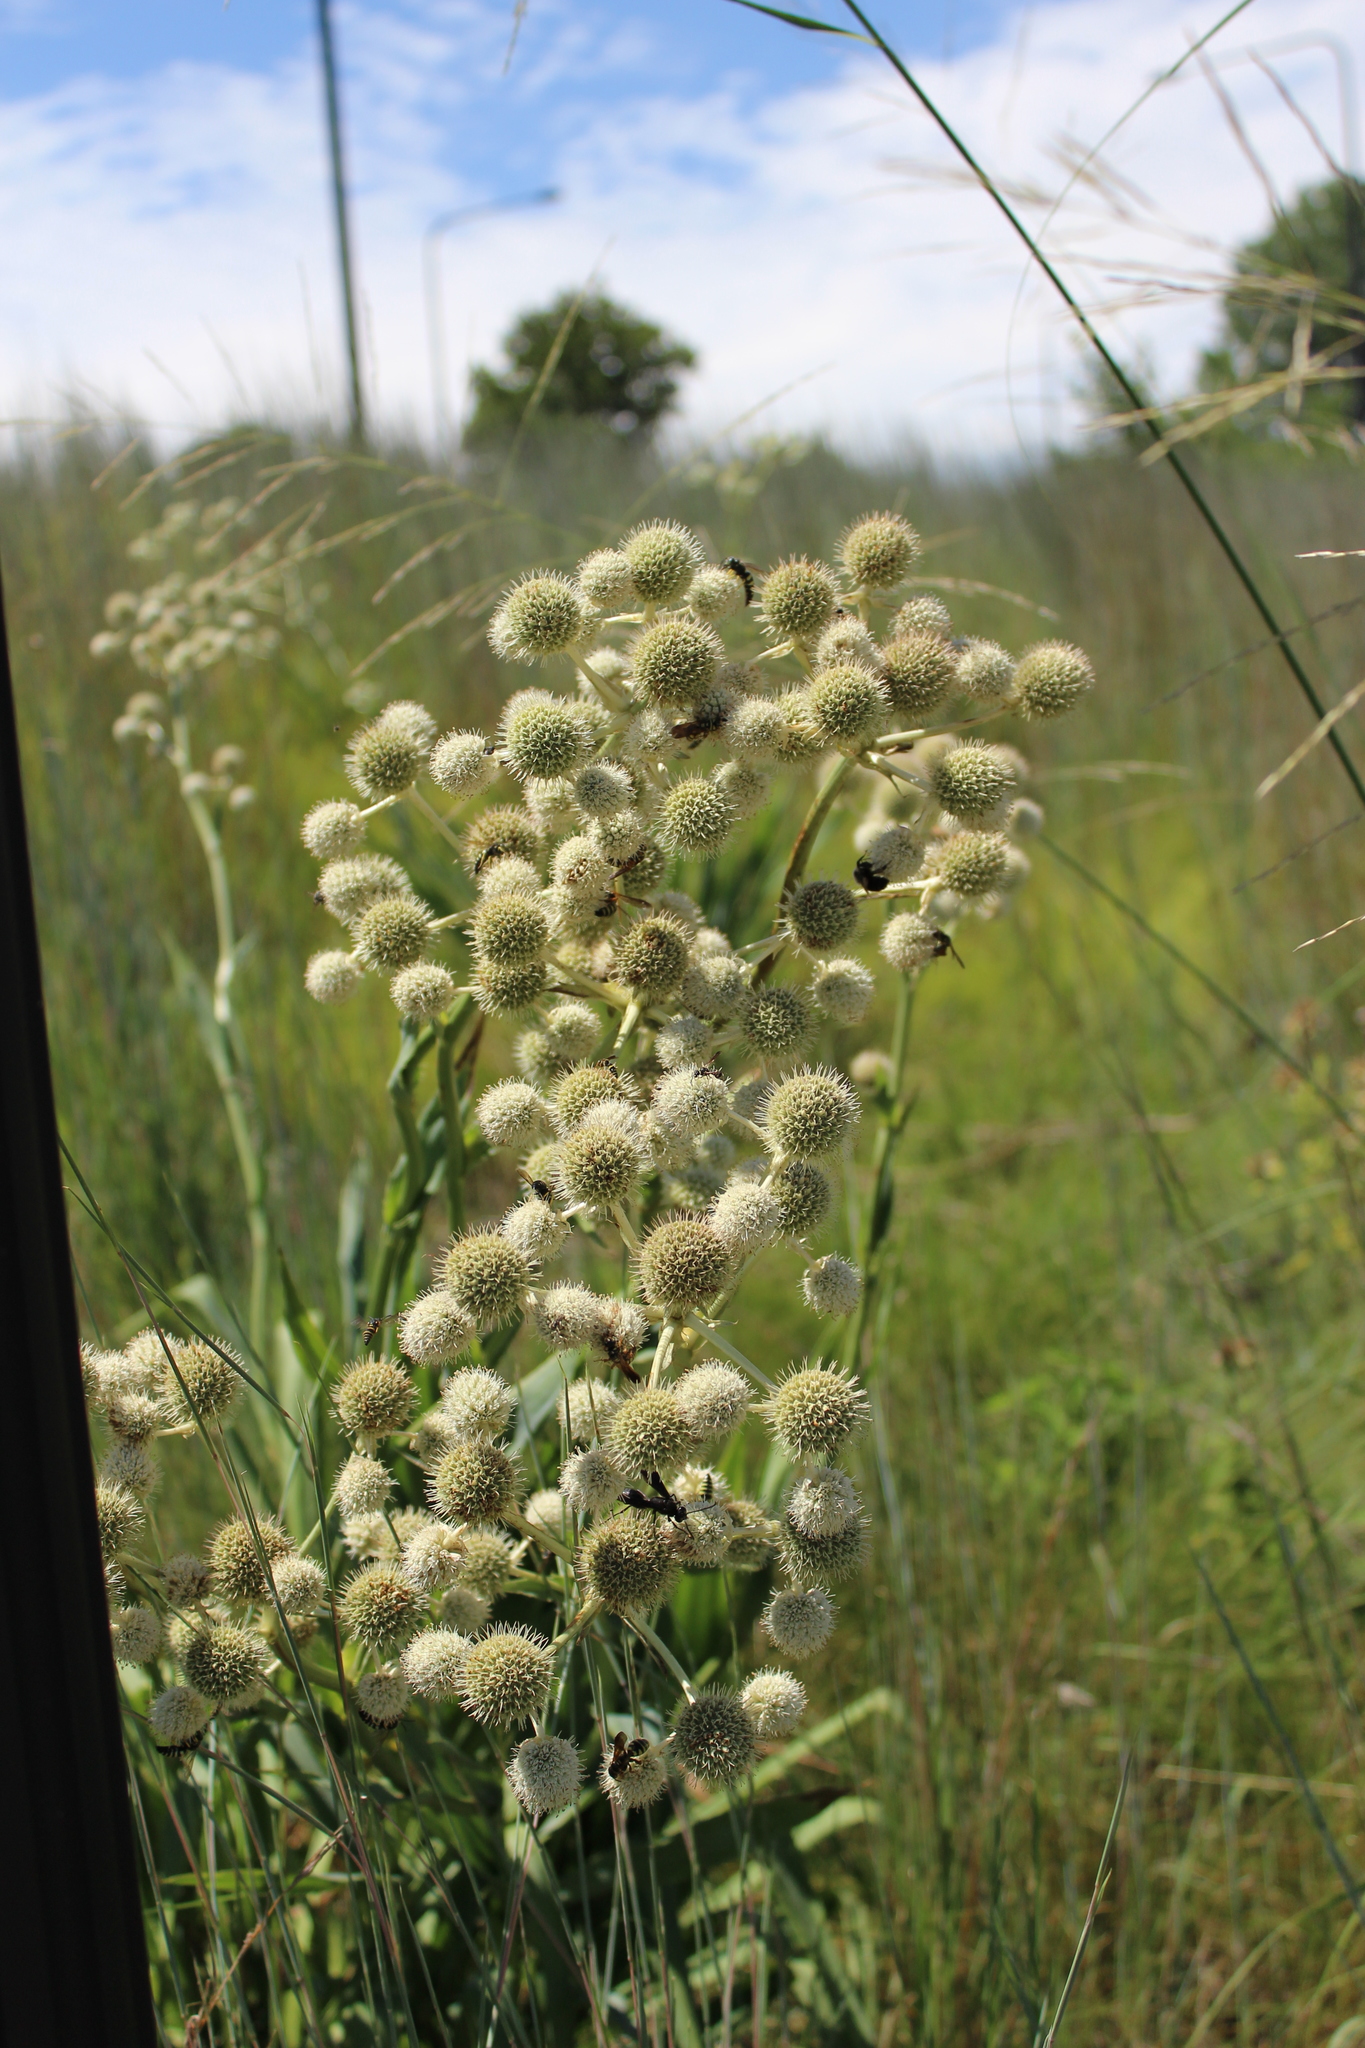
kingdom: Plantae
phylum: Tracheophyta
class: Magnoliopsida
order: Apiales
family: Apiaceae
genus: Eryngium
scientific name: Eryngium yuccifolium
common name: Button eryngo
